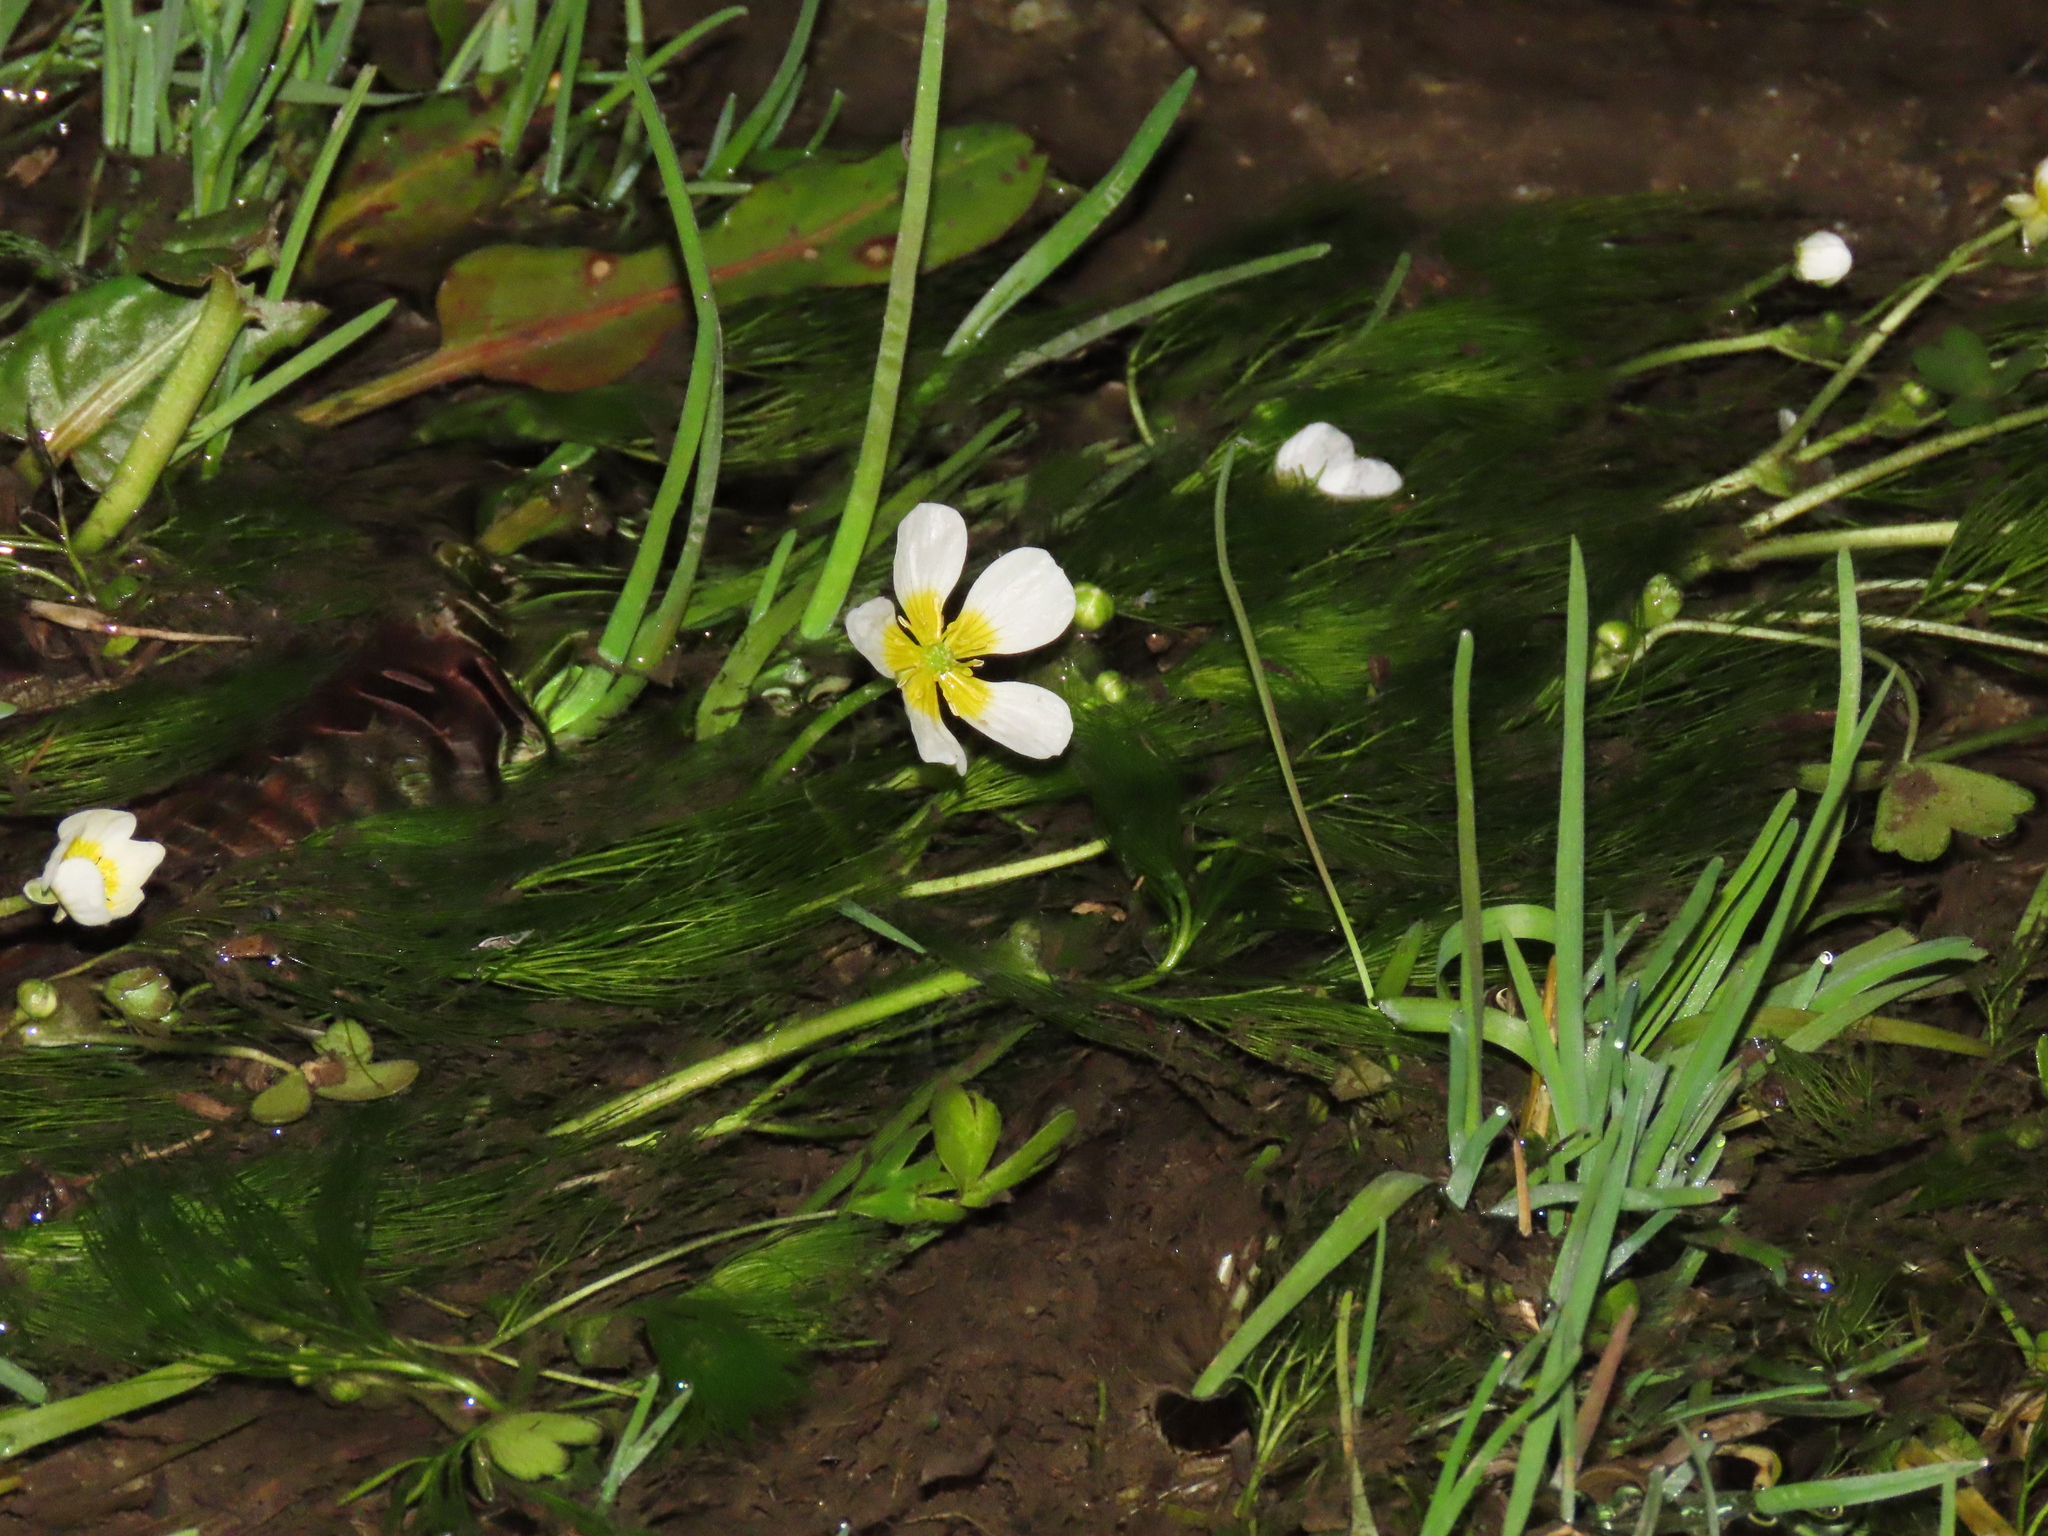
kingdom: Plantae
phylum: Tracheophyta
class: Magnoliopsida
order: Ranunculales
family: Ranunculaceae
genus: Ranunculus
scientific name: Ranunculus aquatilis
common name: Common water-crowfoot
